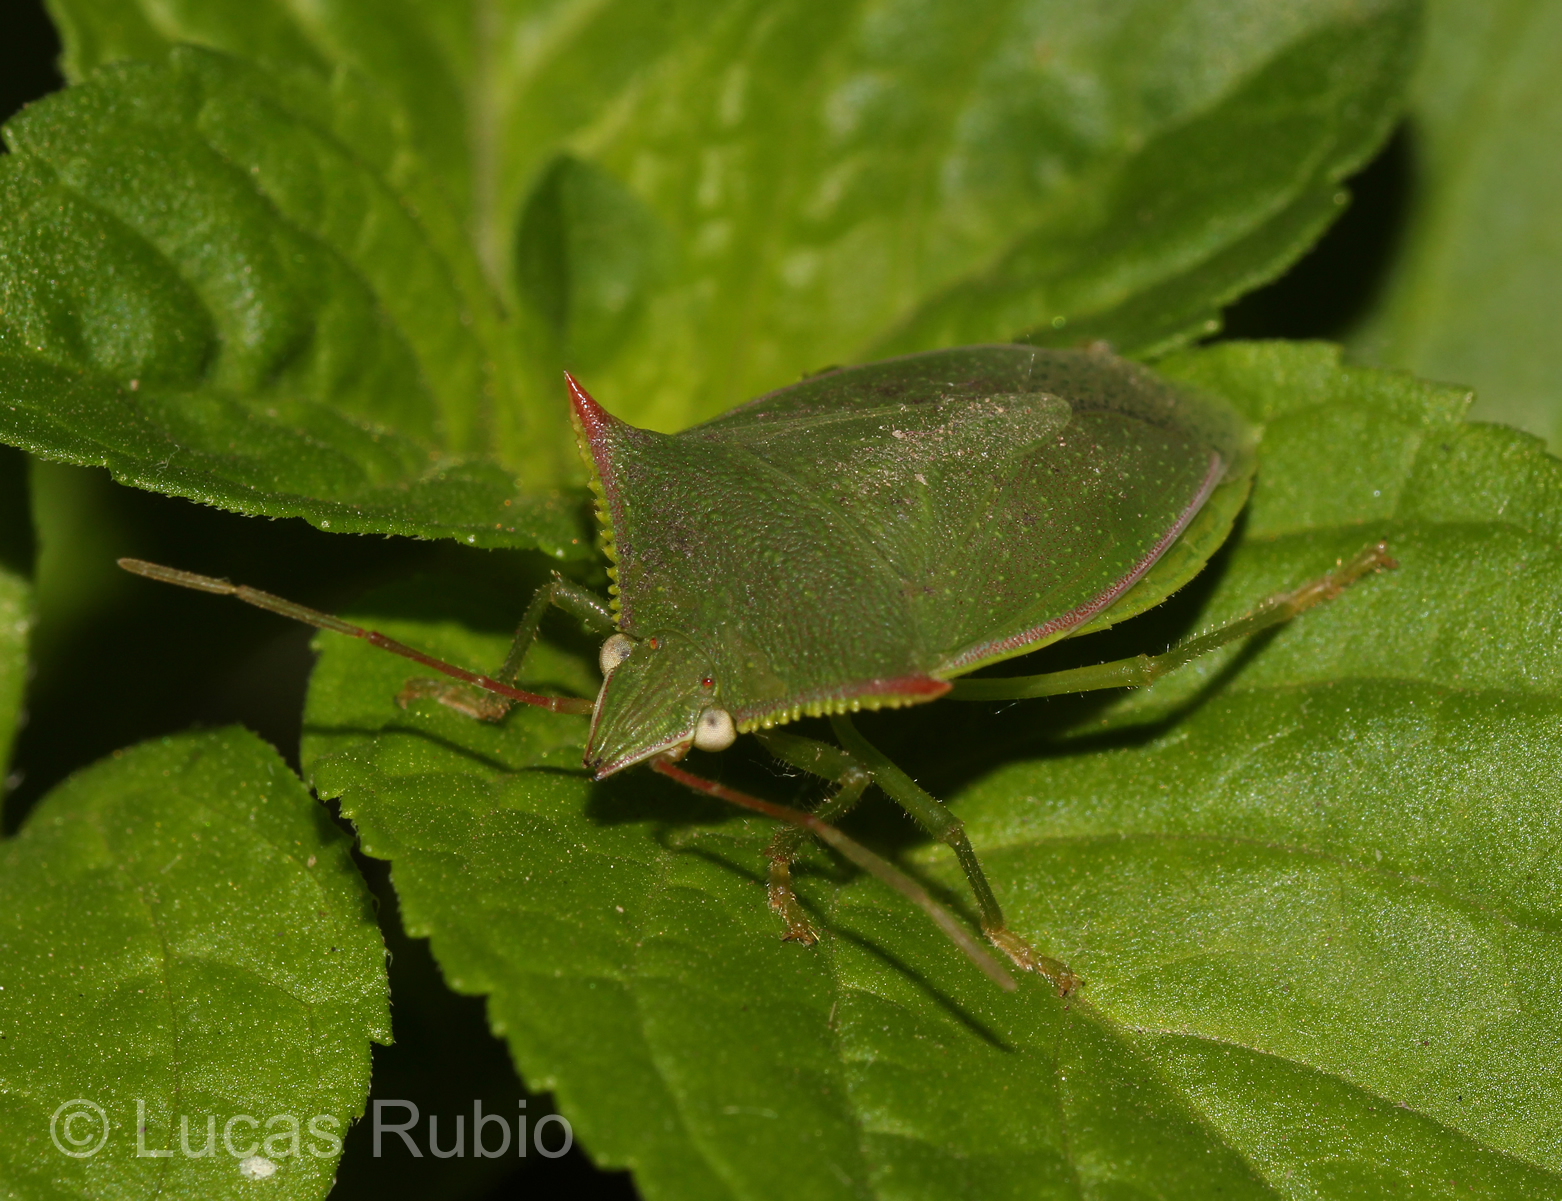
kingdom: Animalia
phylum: Arthropoda
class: Insecta
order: Hemiptera
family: Pentatomidae
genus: Loxa
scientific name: Loxa deducta
